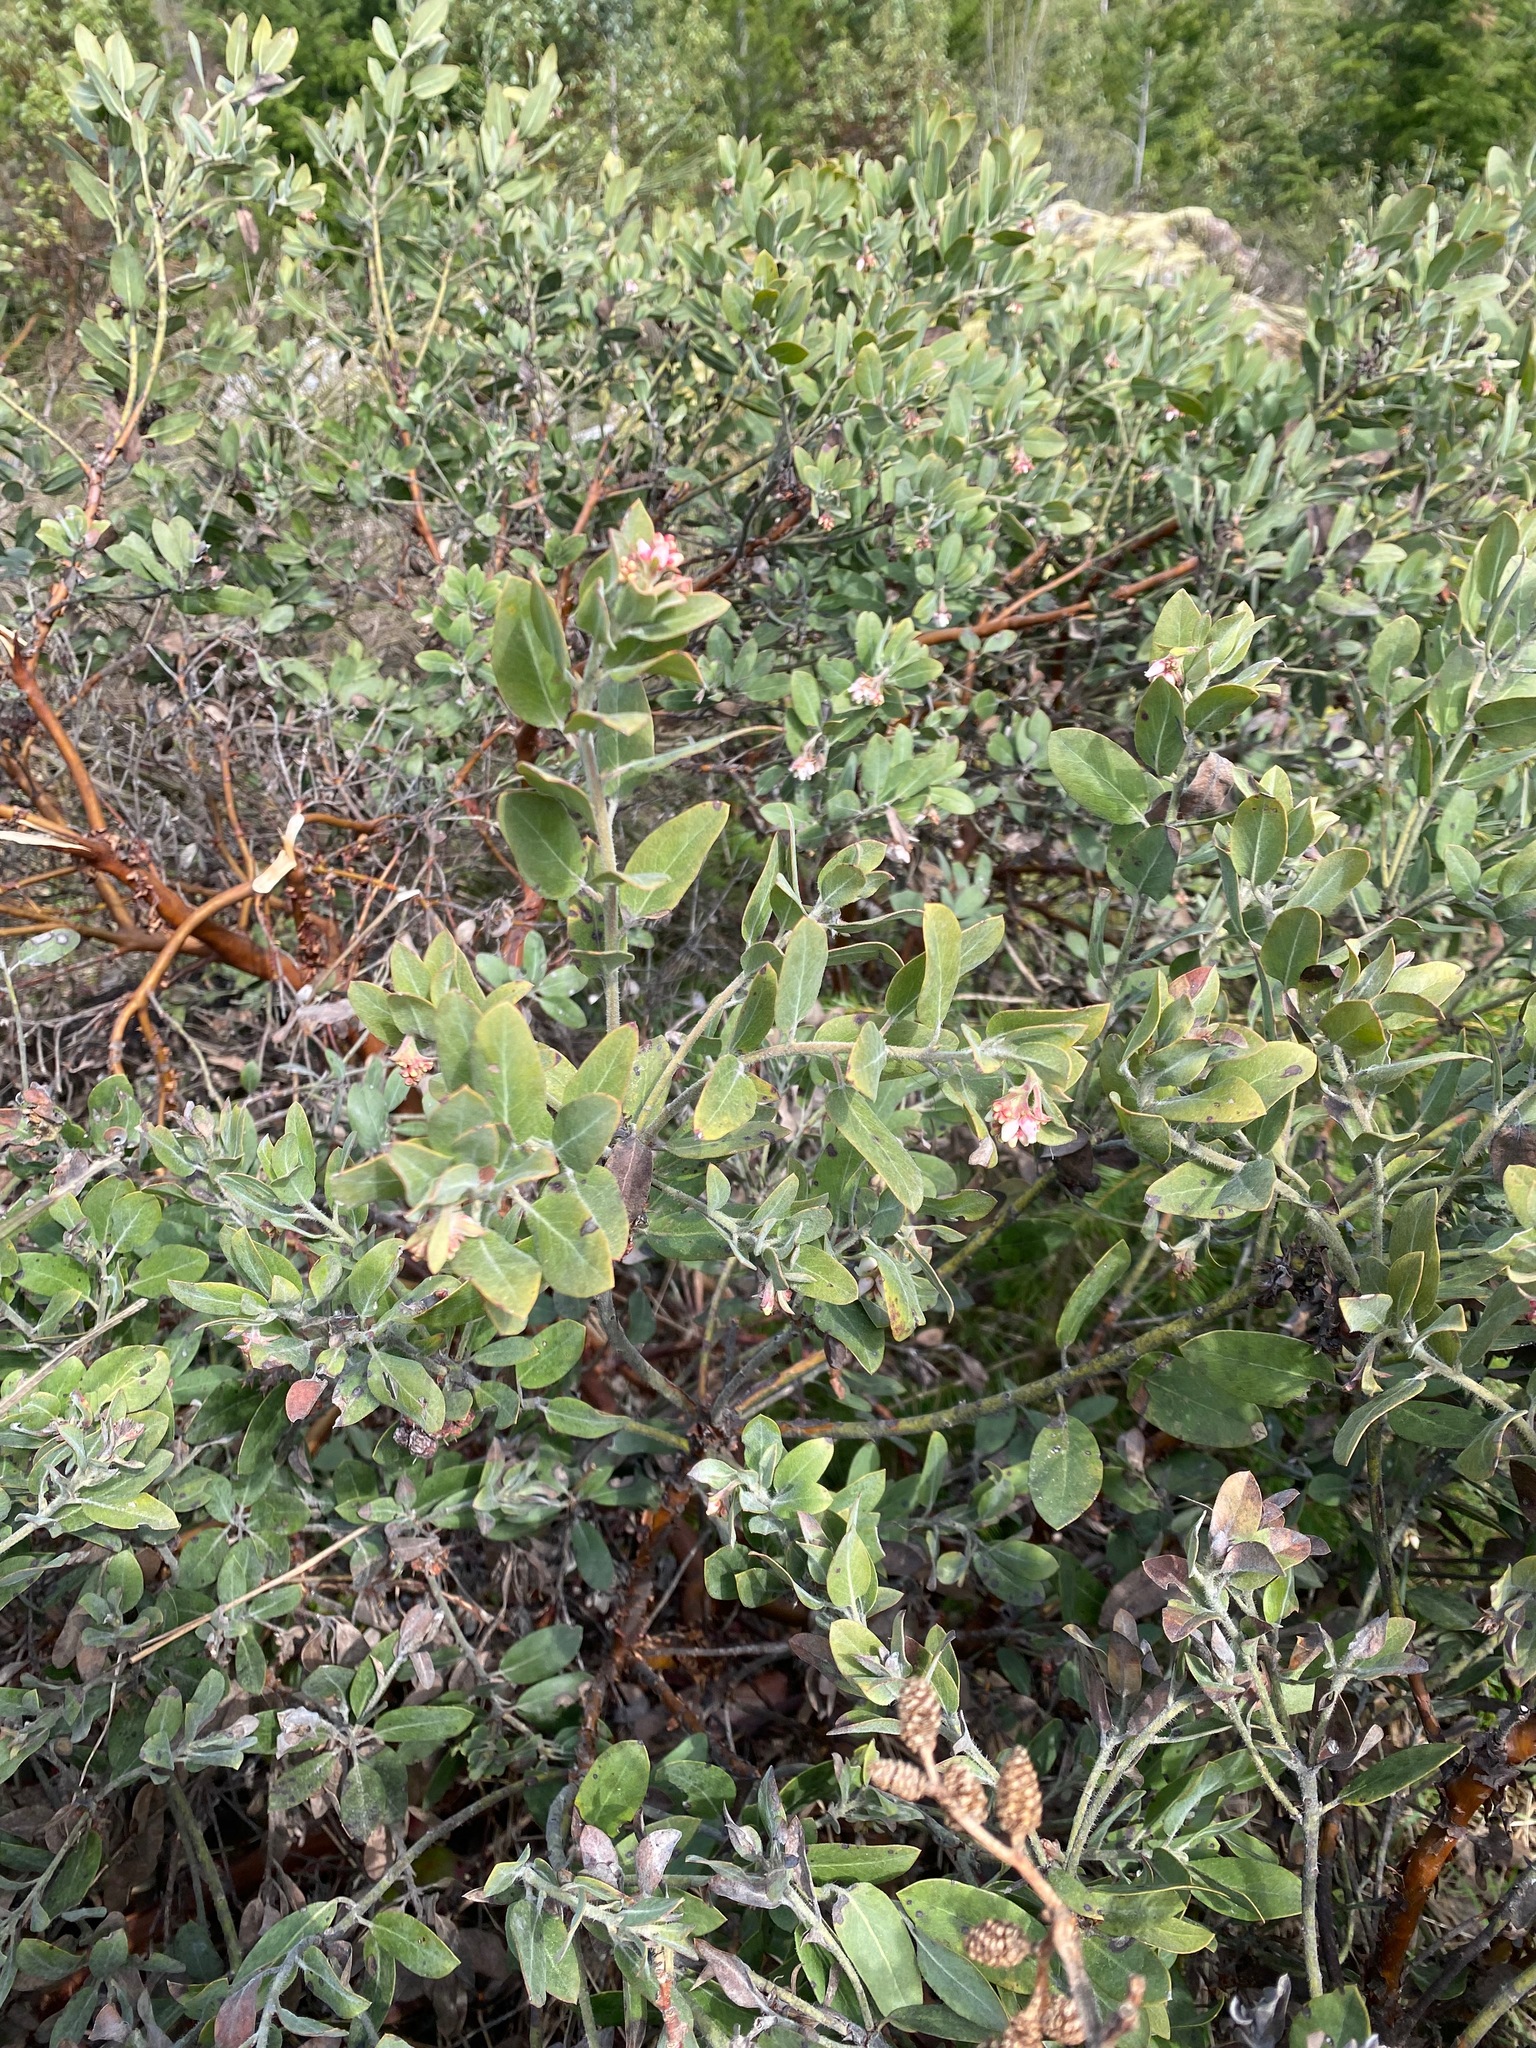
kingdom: Plantae
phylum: Tracheophyta
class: Magnoliopsida
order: Ericales
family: Ericaceae
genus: Arctostaphylos
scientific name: Arctostaphylos columbiana
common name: Bristly bearberry
